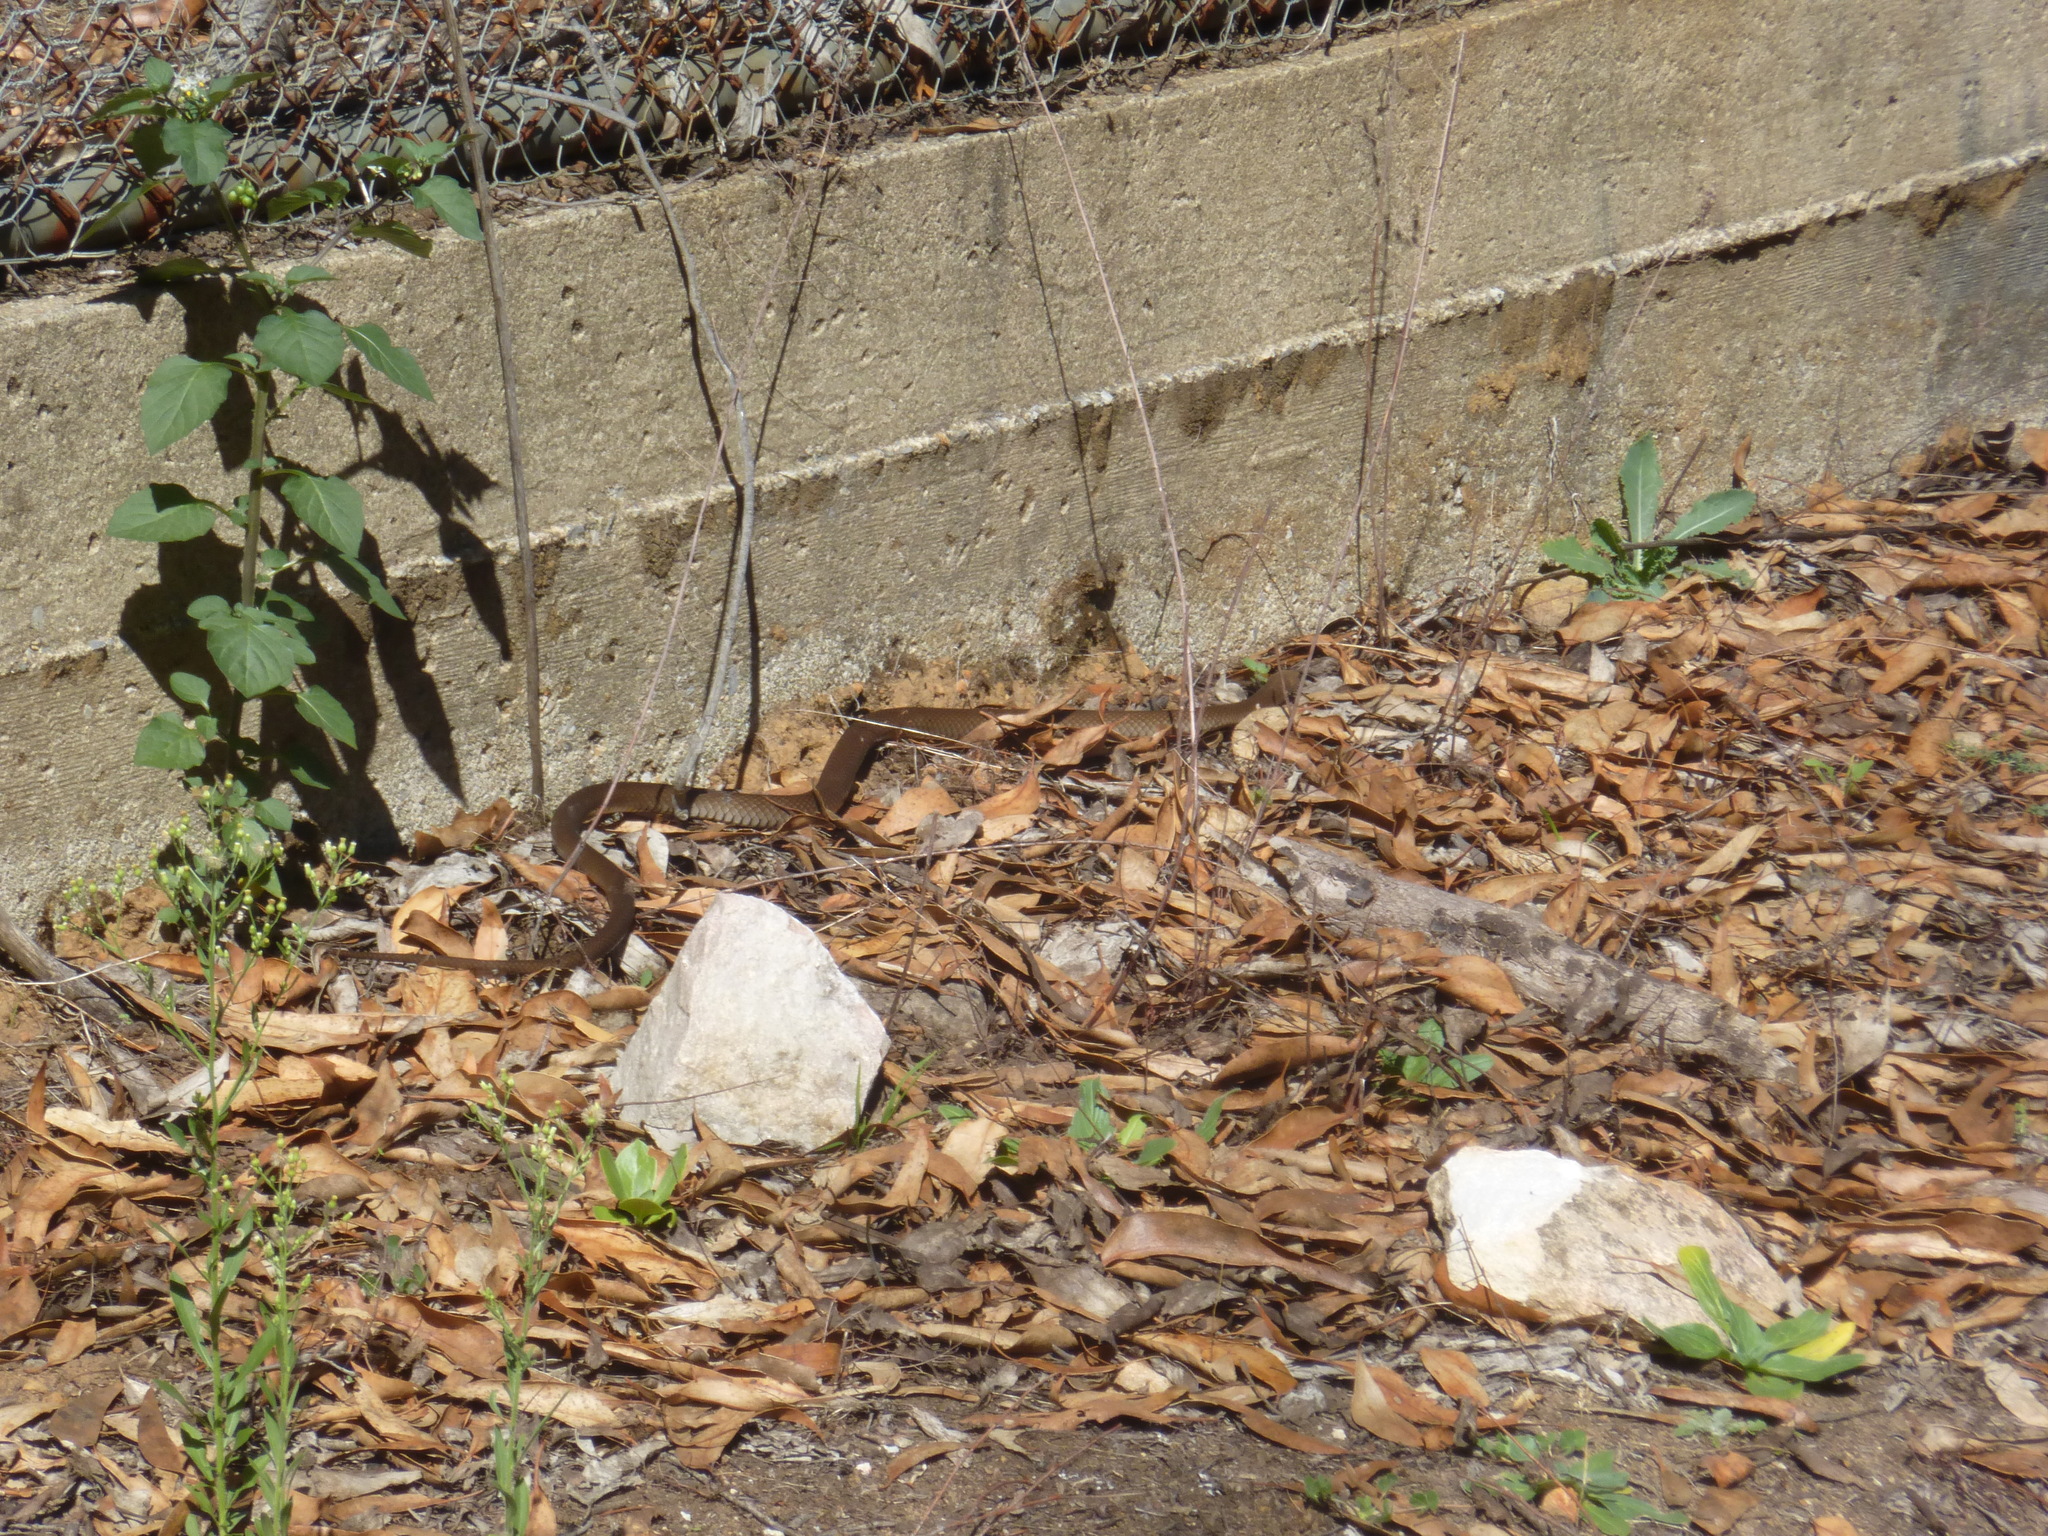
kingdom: Animalia
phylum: Chordata
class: Squamata
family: Elapidae
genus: Pseudonaja
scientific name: Pseudonaja textilis
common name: Eastern brown snake
